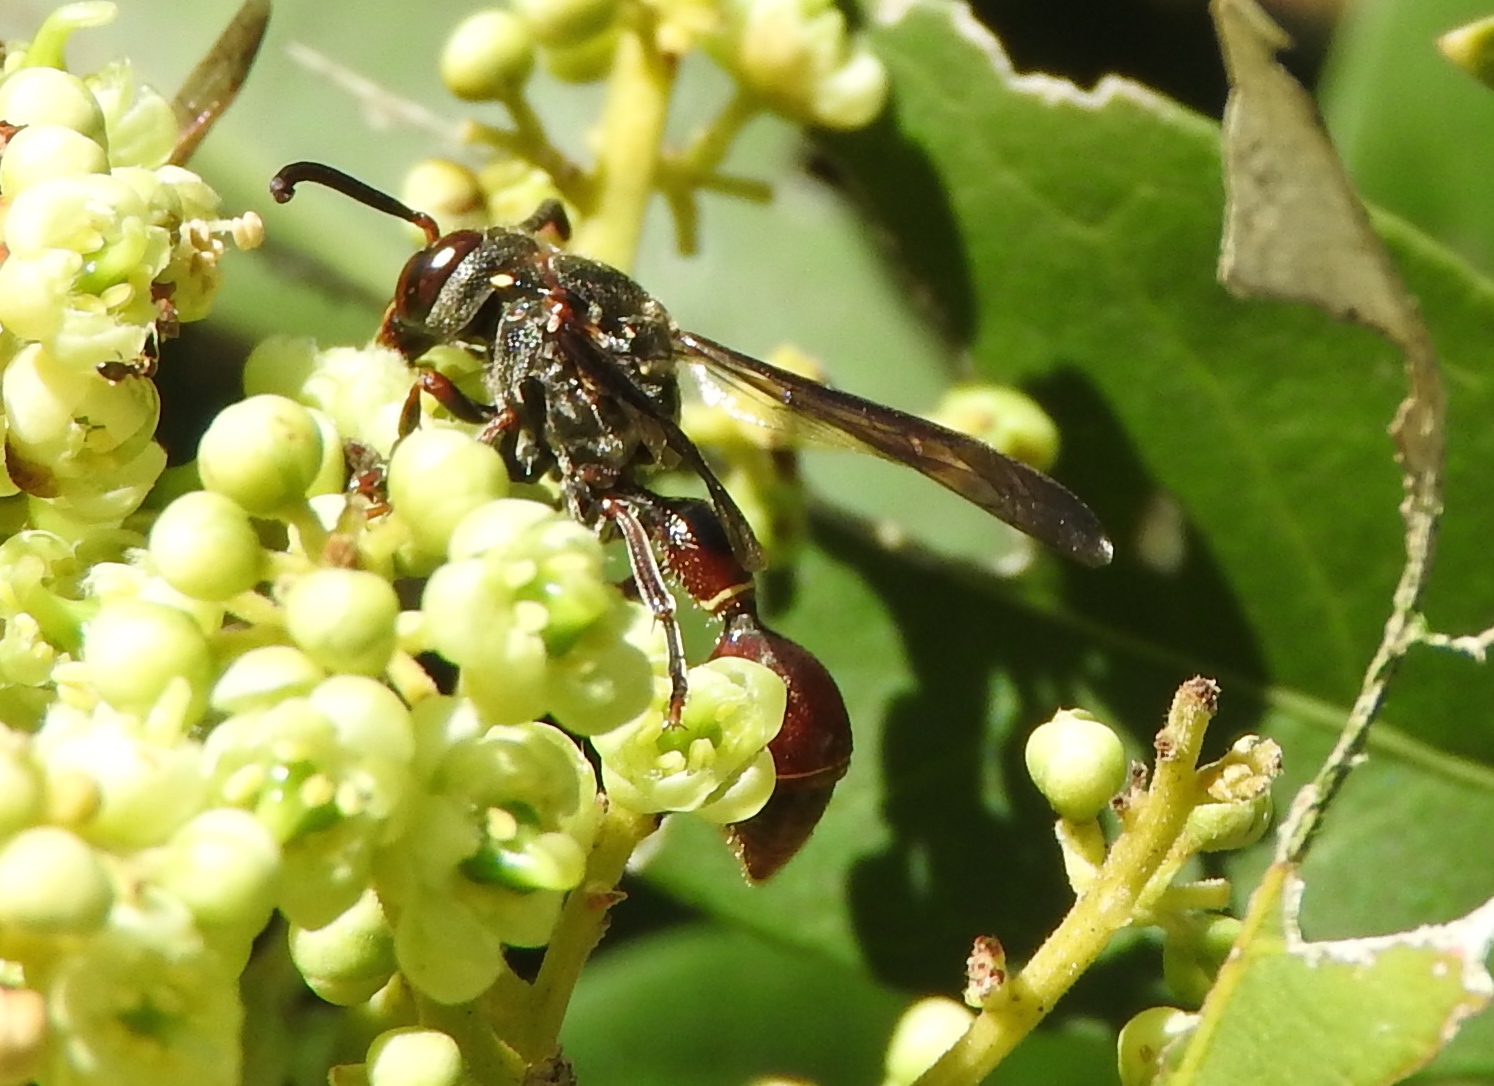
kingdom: Animalia
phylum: Arthropoda
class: Insecta
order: Hymenoptera
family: Eumenidae
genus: Zethus
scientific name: Zethus analis
